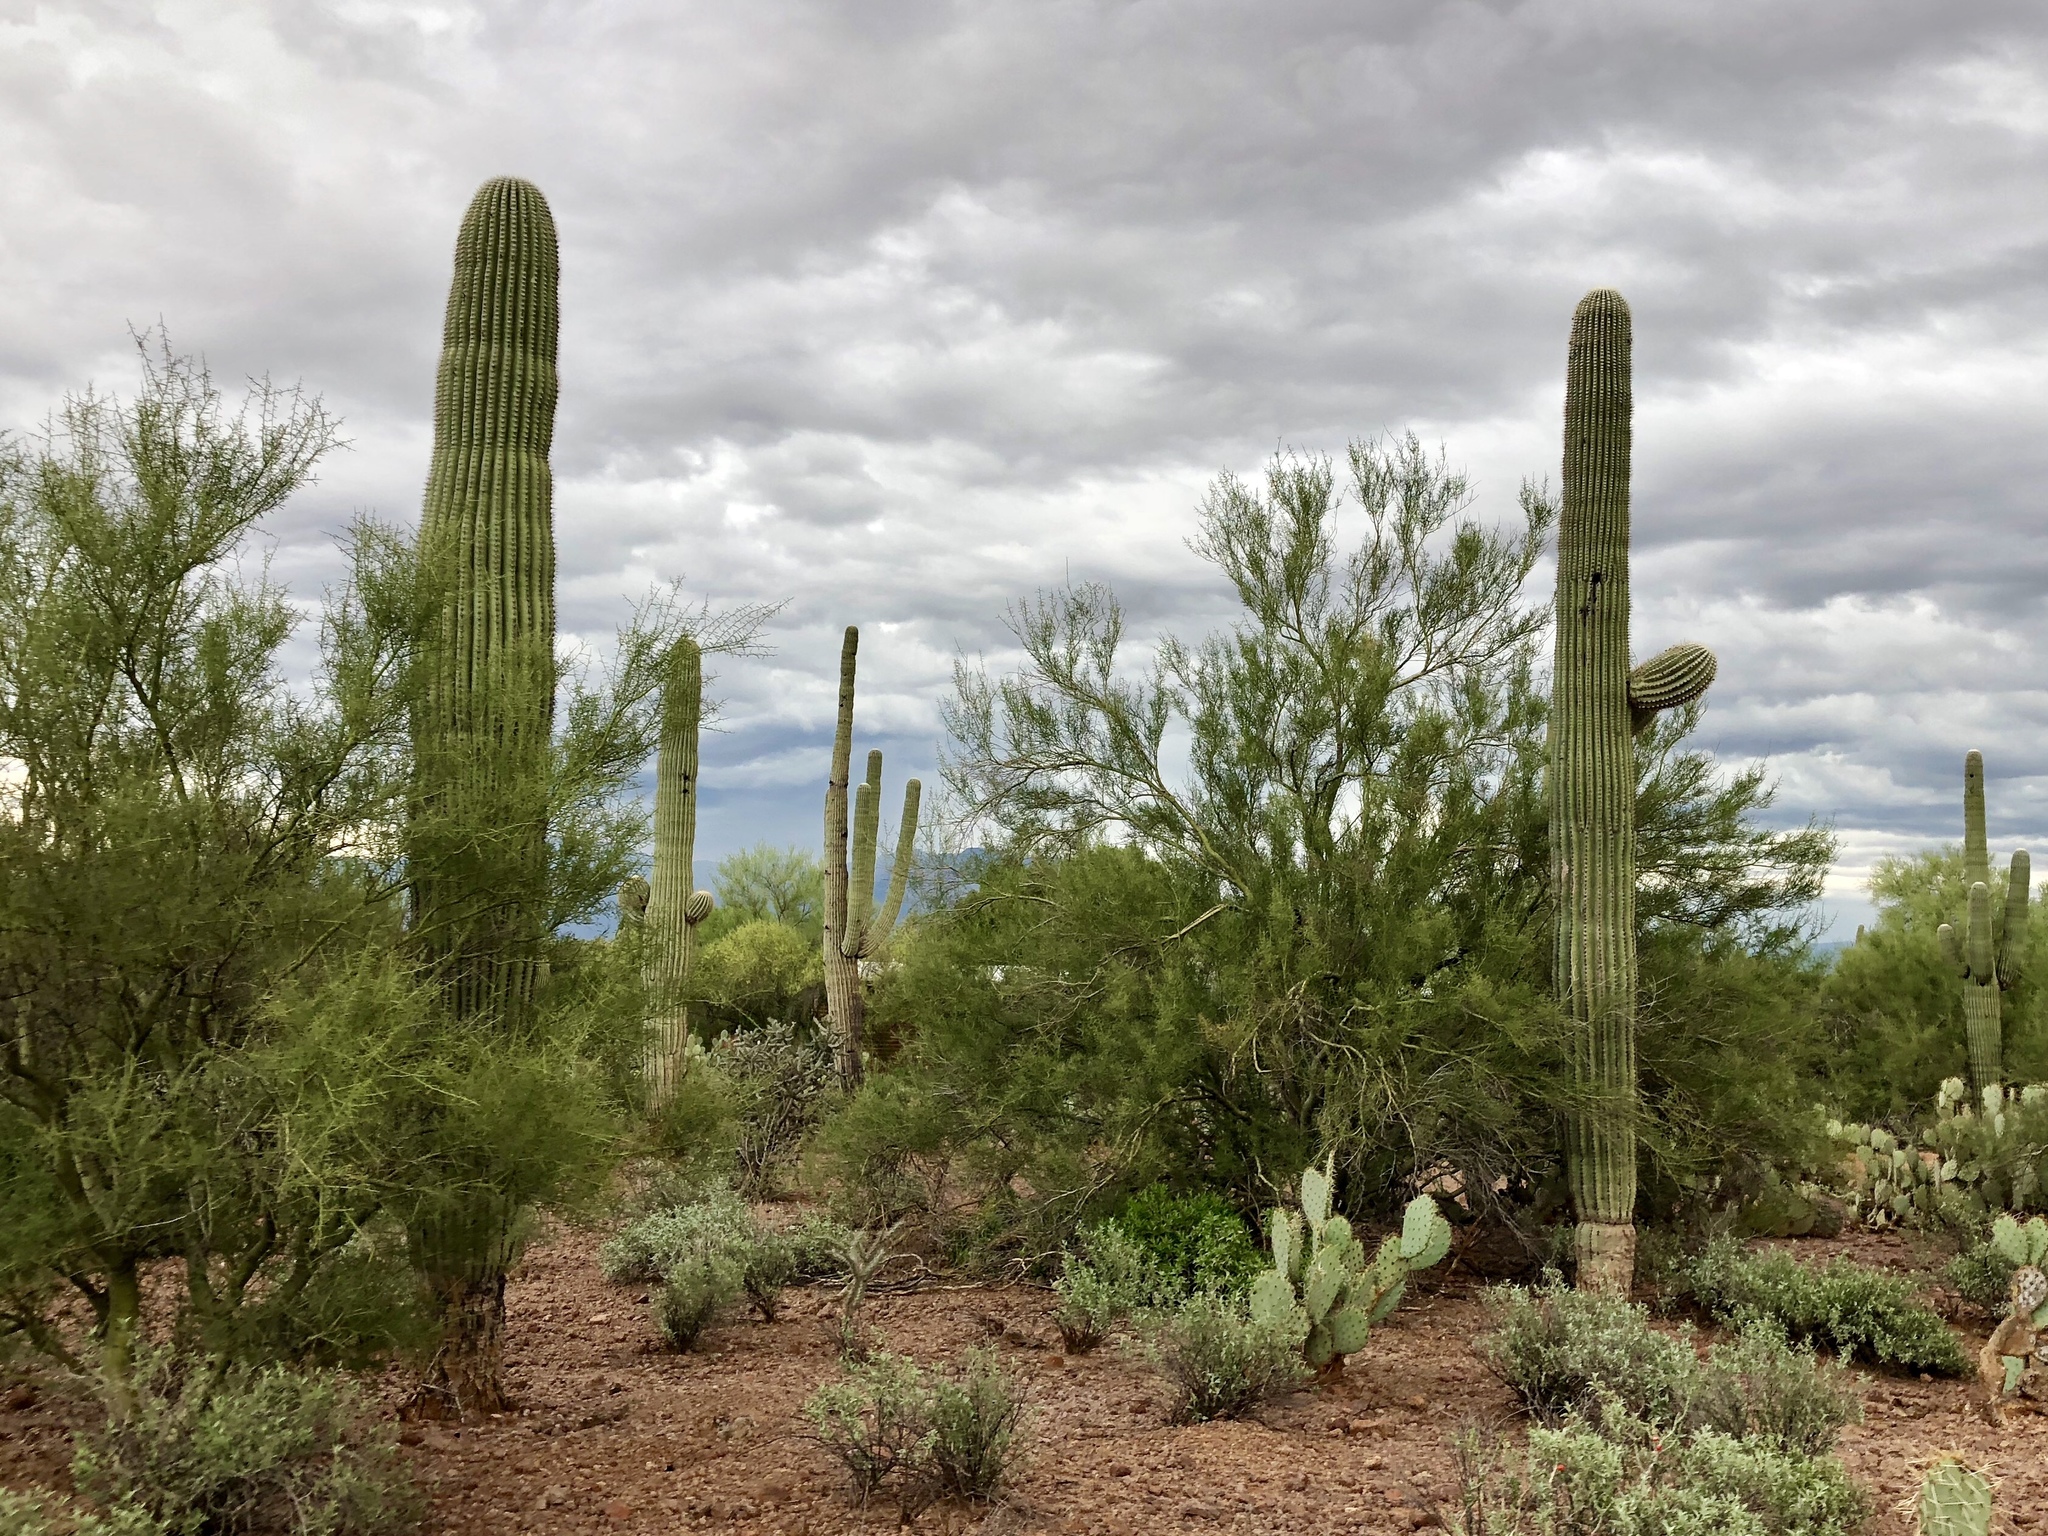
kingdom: Plantae
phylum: Tracheophyta
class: Magnoliopsida
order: Caryophyllales
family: Cactaceae
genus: Carnegiea
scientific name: Carnegiea gigantea
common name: Saguaro
